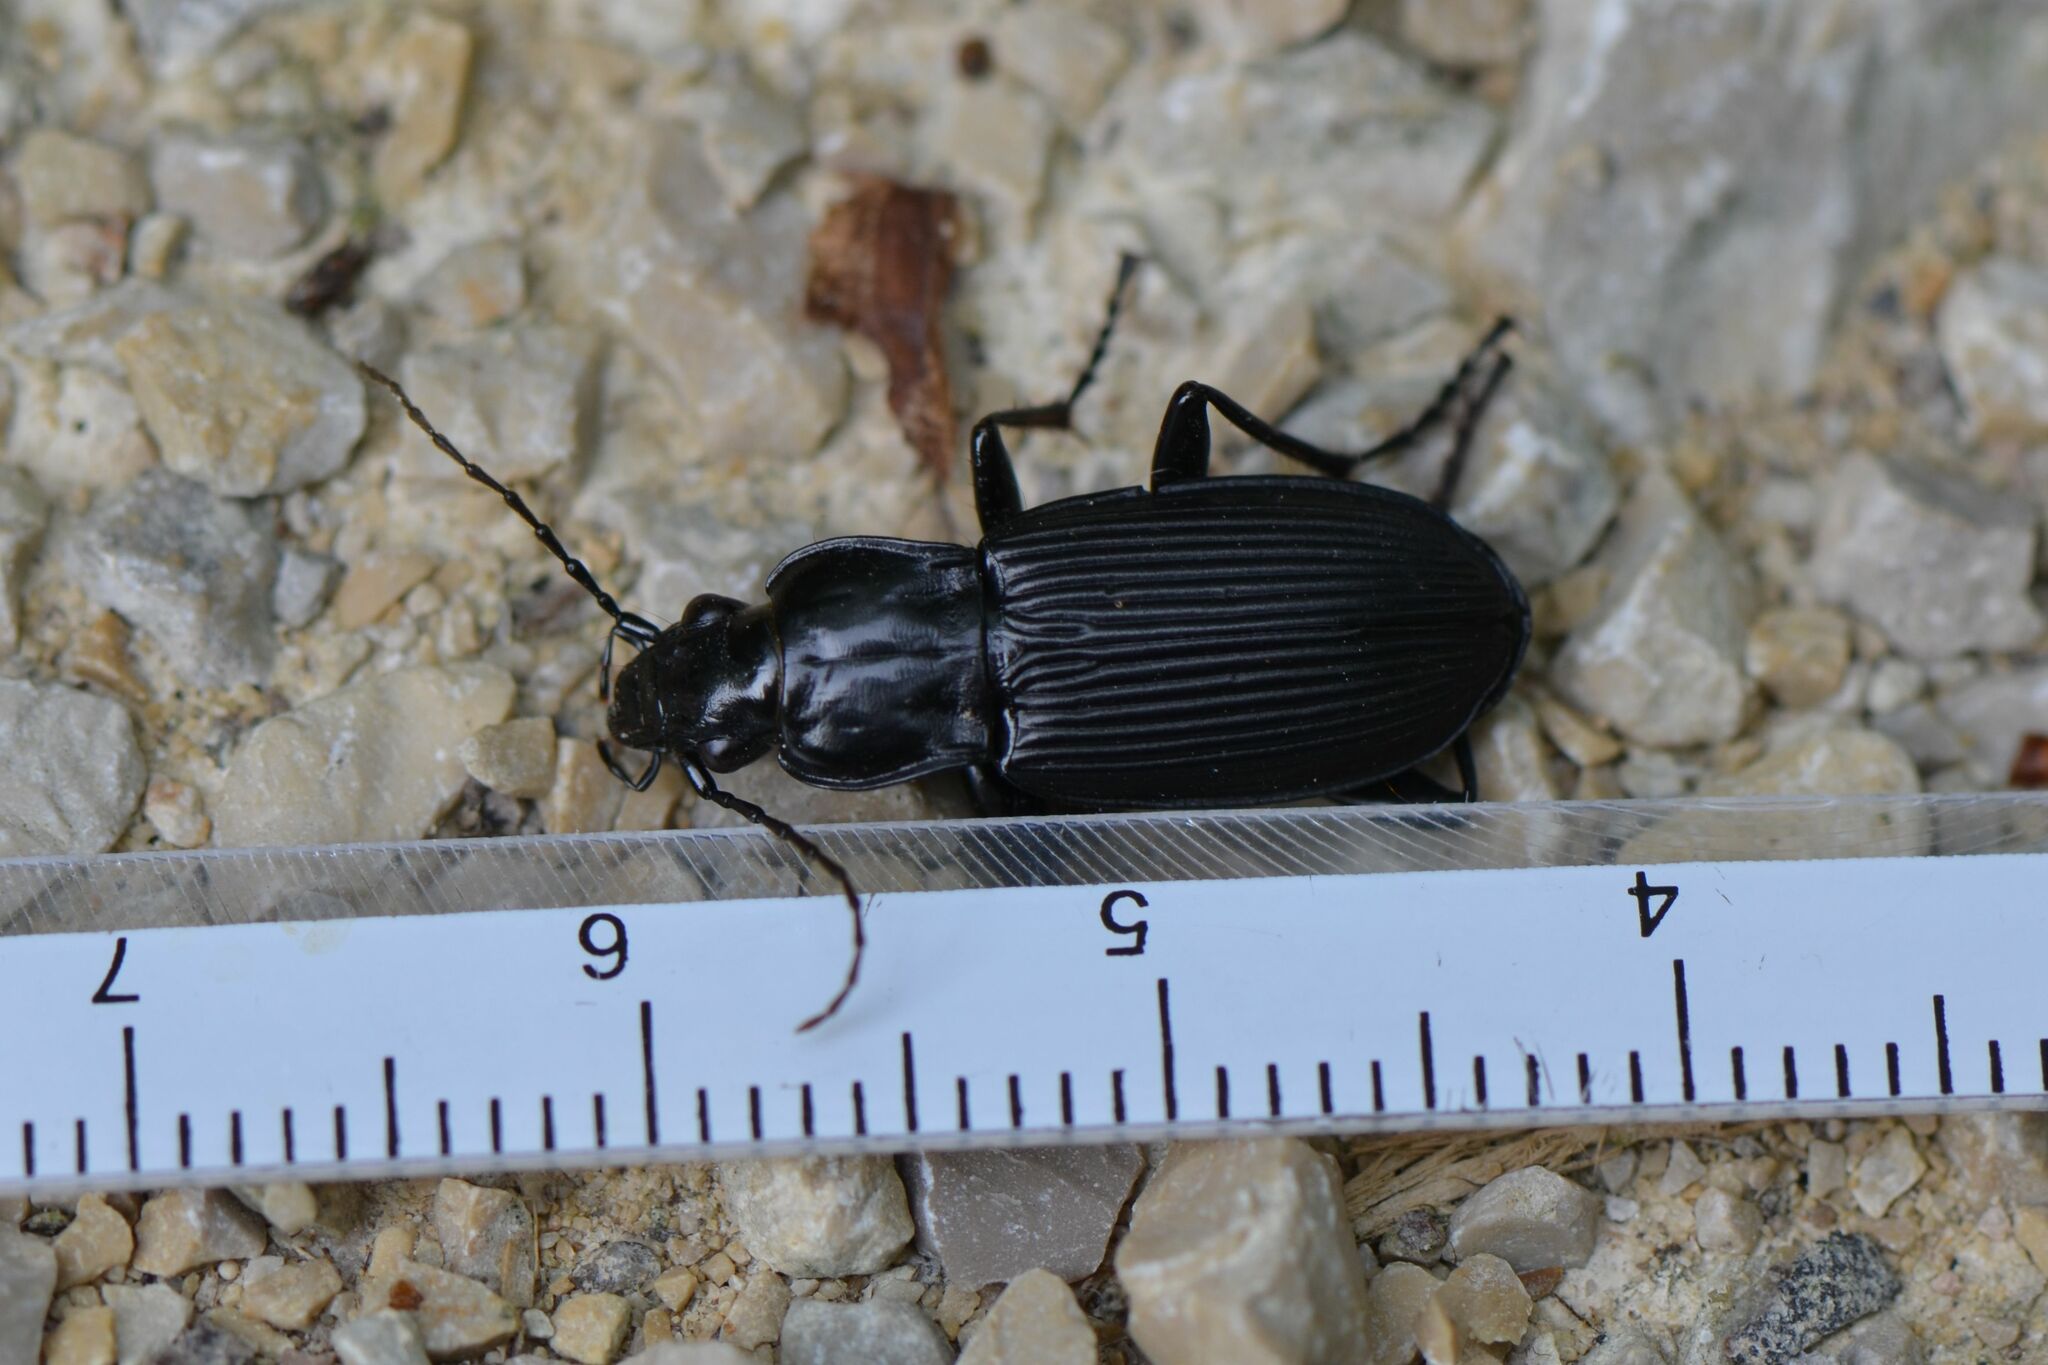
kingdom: Animalia
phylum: Arthropoda
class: Insecta
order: Coleoptera
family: Carabidae
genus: Pterostichus
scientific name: Pterostichus niger
